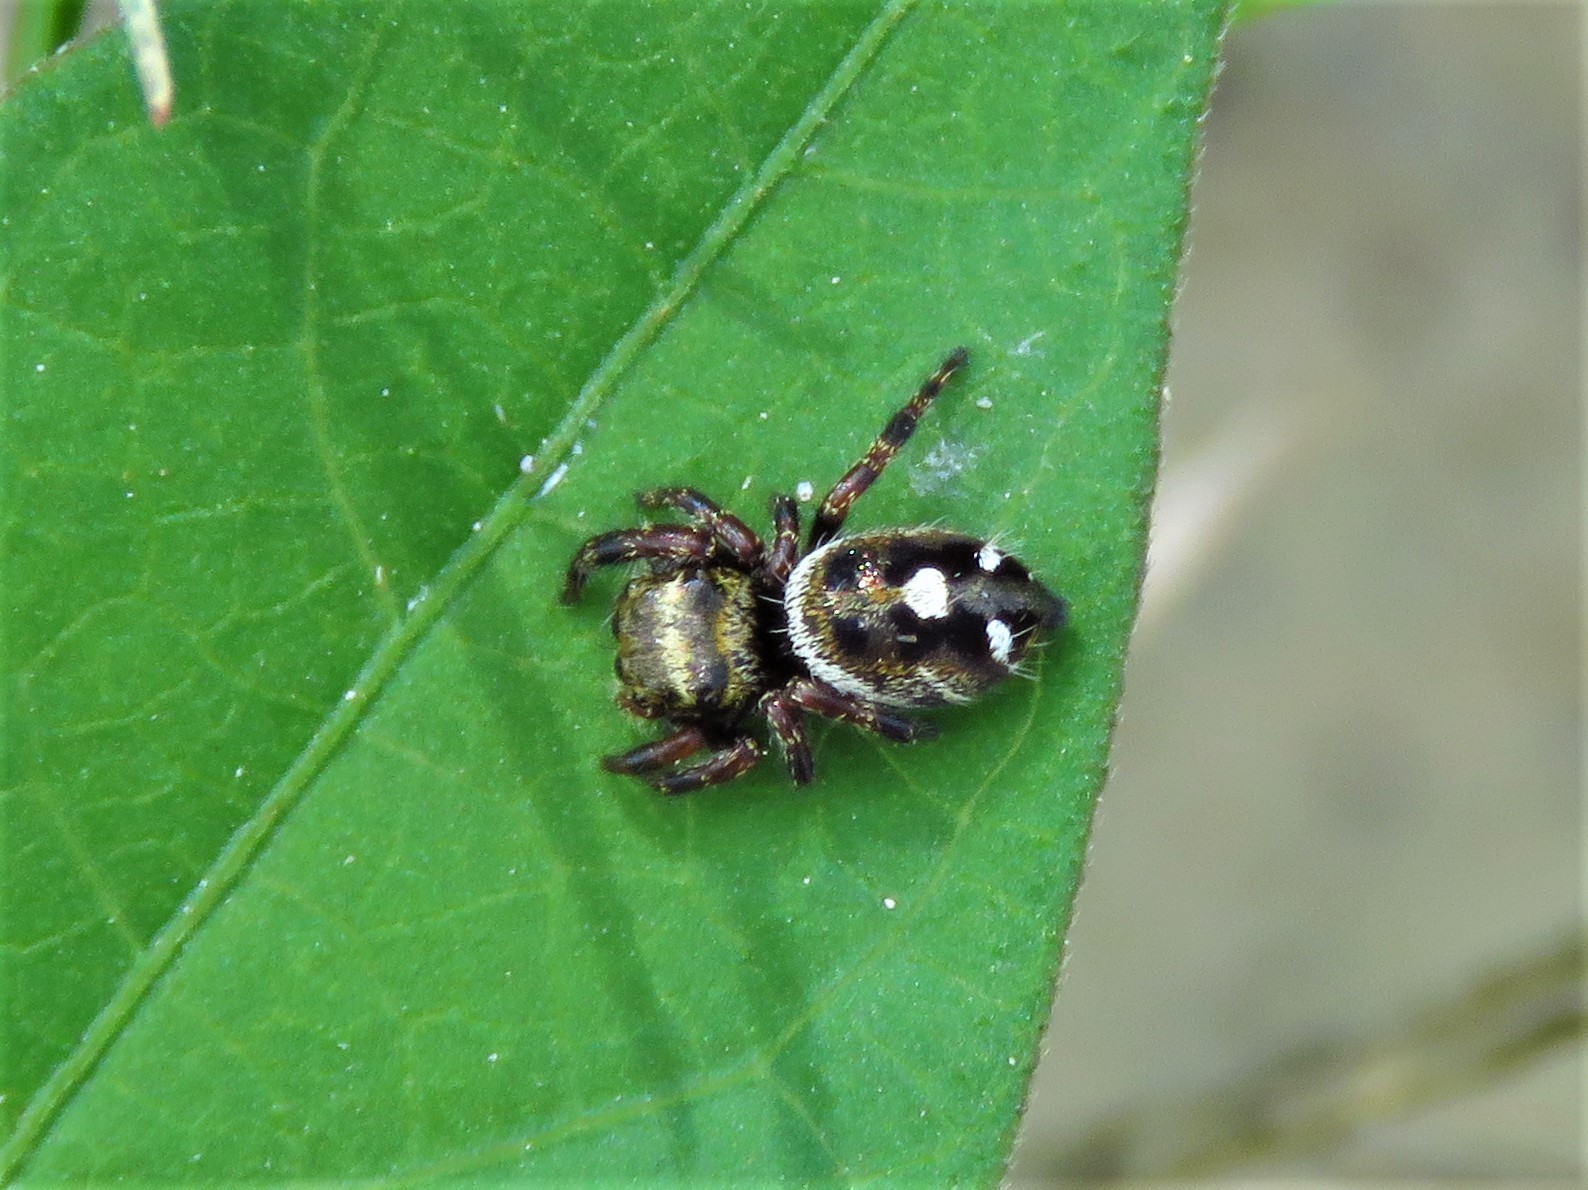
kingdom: Animalia
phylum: Arthropoda
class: Arachnida
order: Araneae
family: Salticidae
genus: Phidippus
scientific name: Phidippus audax
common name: Bold jumper
